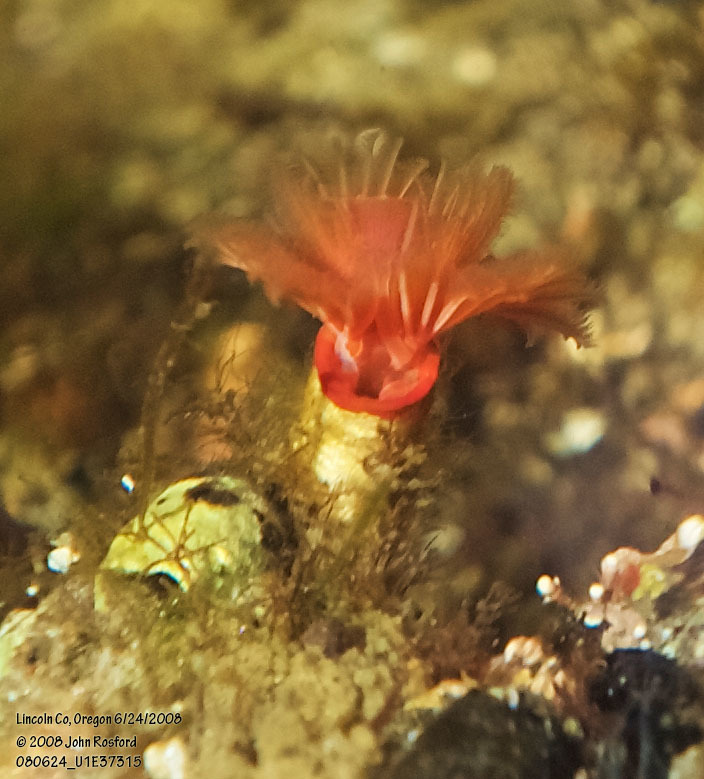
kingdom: Animalia
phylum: Annelida
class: Polychaeta
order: Sabellida
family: Serpulidae
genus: Serpula
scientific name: Serpula columbiana
